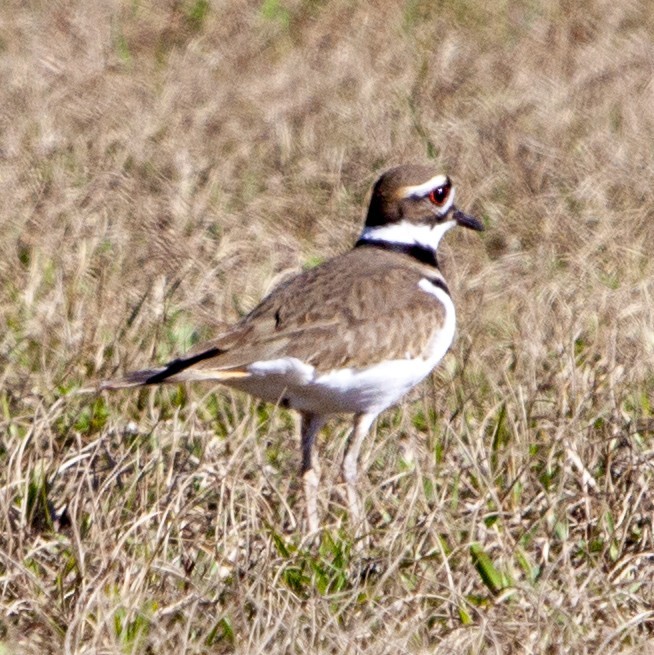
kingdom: Animalia
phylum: Chordata
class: Aves
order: Charadriiformes
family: Charadriidae
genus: Charadrius
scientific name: Charadrius vociferus
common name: Killdeer
